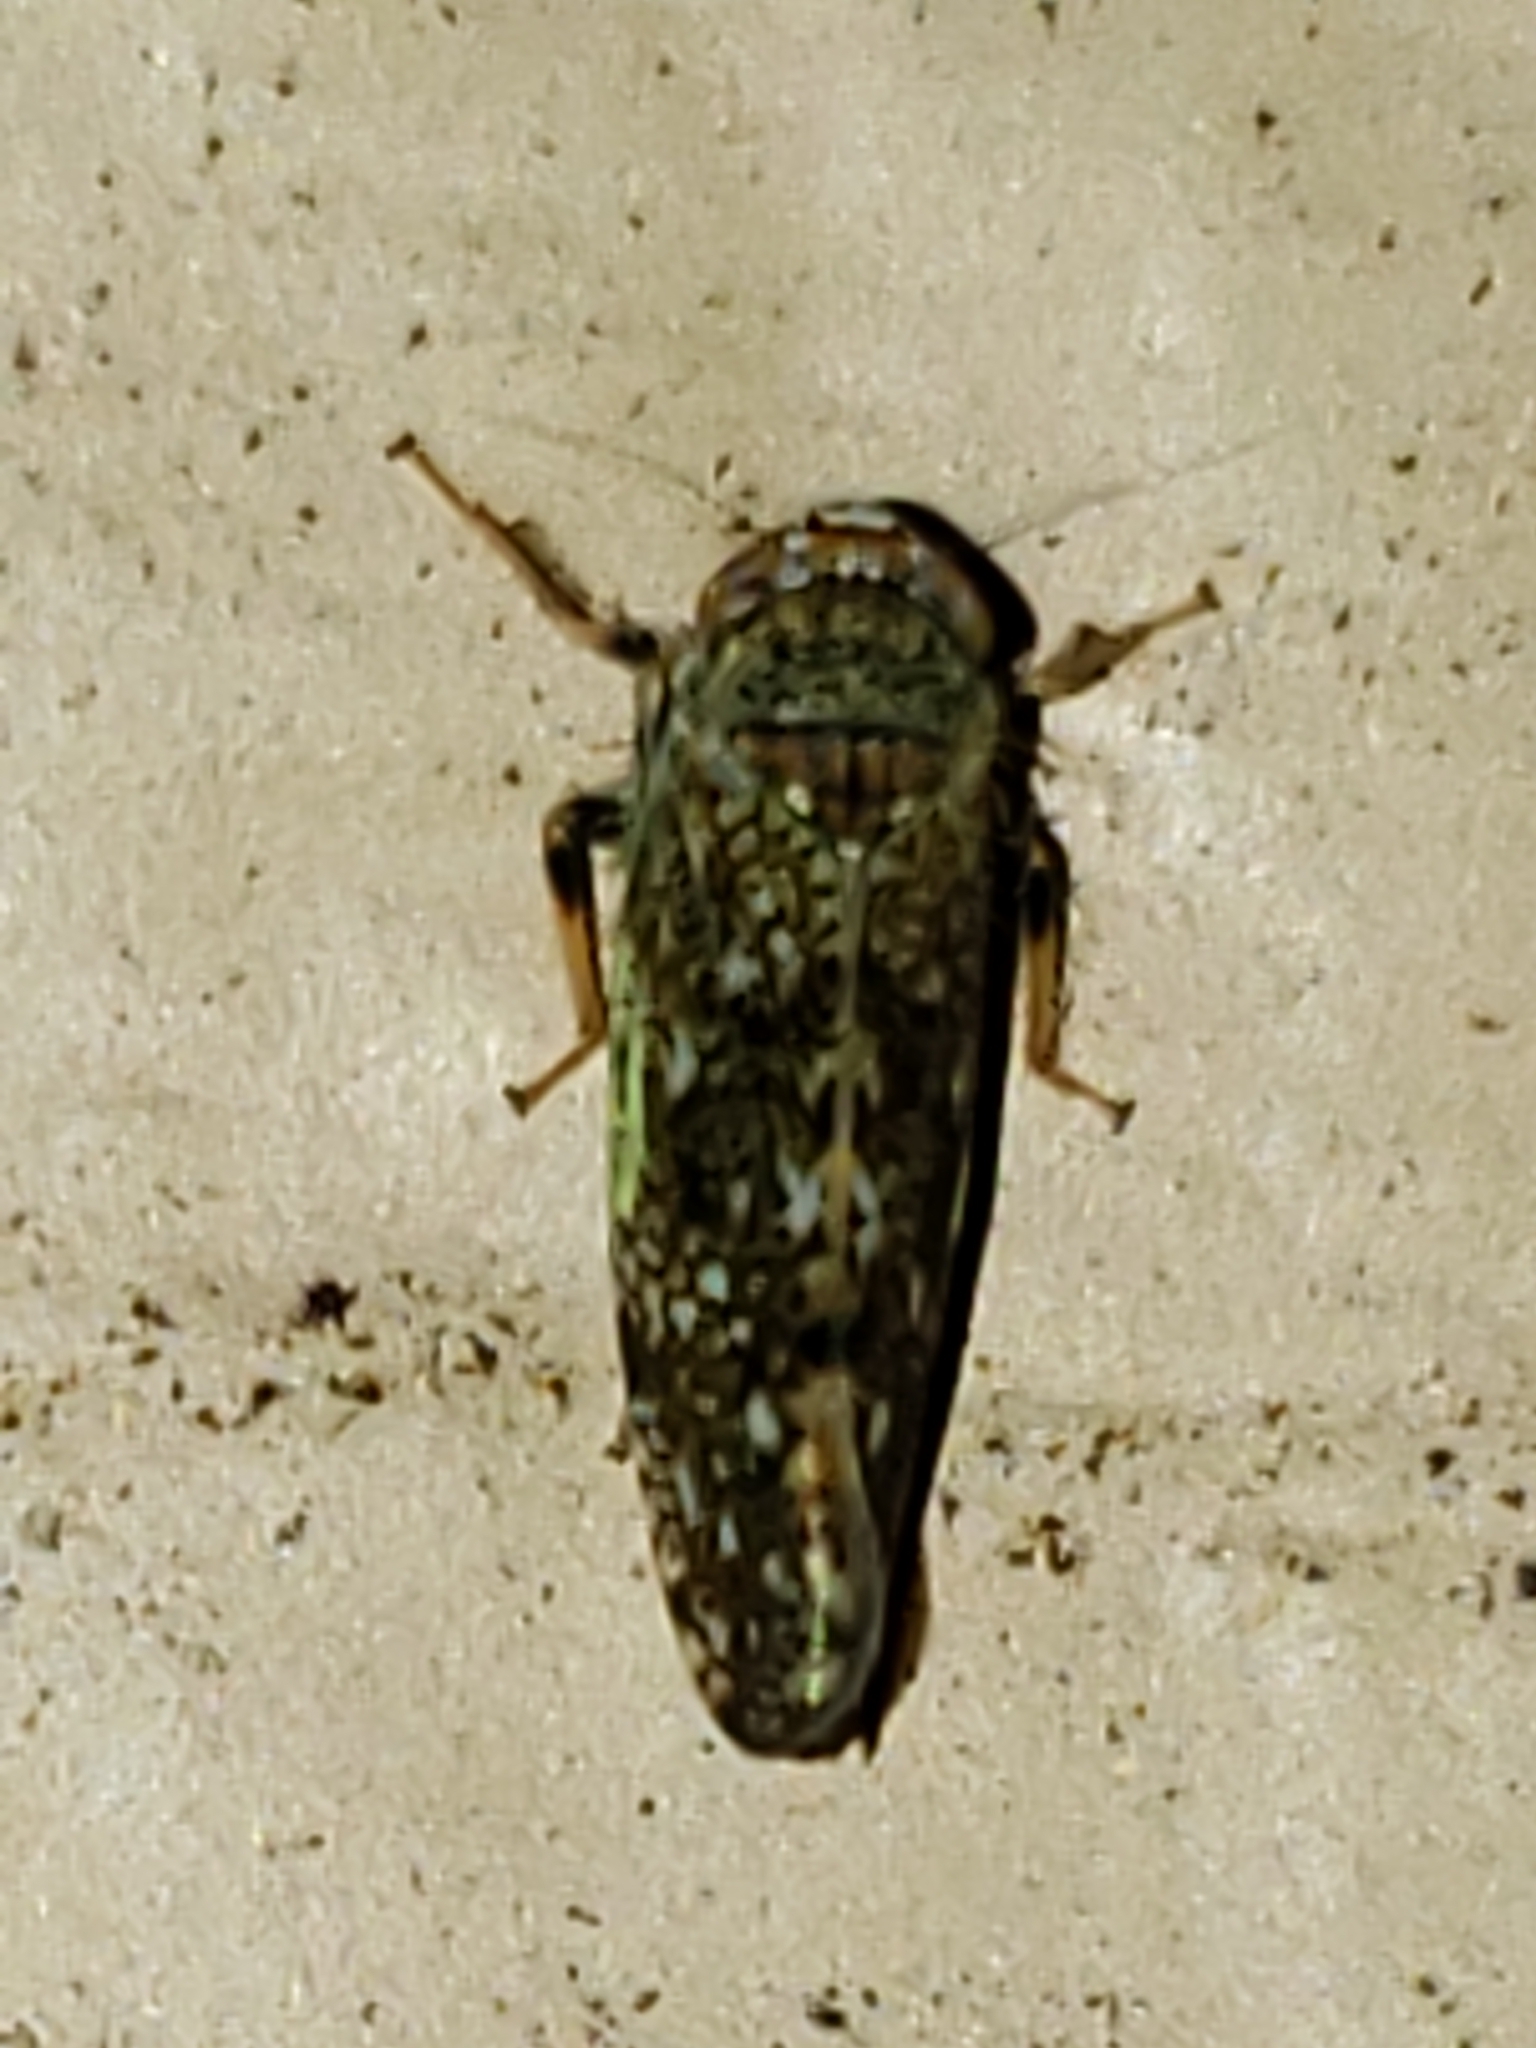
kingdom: Animalia
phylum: Arthropoda
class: Insecta
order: Hemiptera
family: Cicadellidae
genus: Orientus
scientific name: Orientus ishidae
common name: Japanese leafhopper
